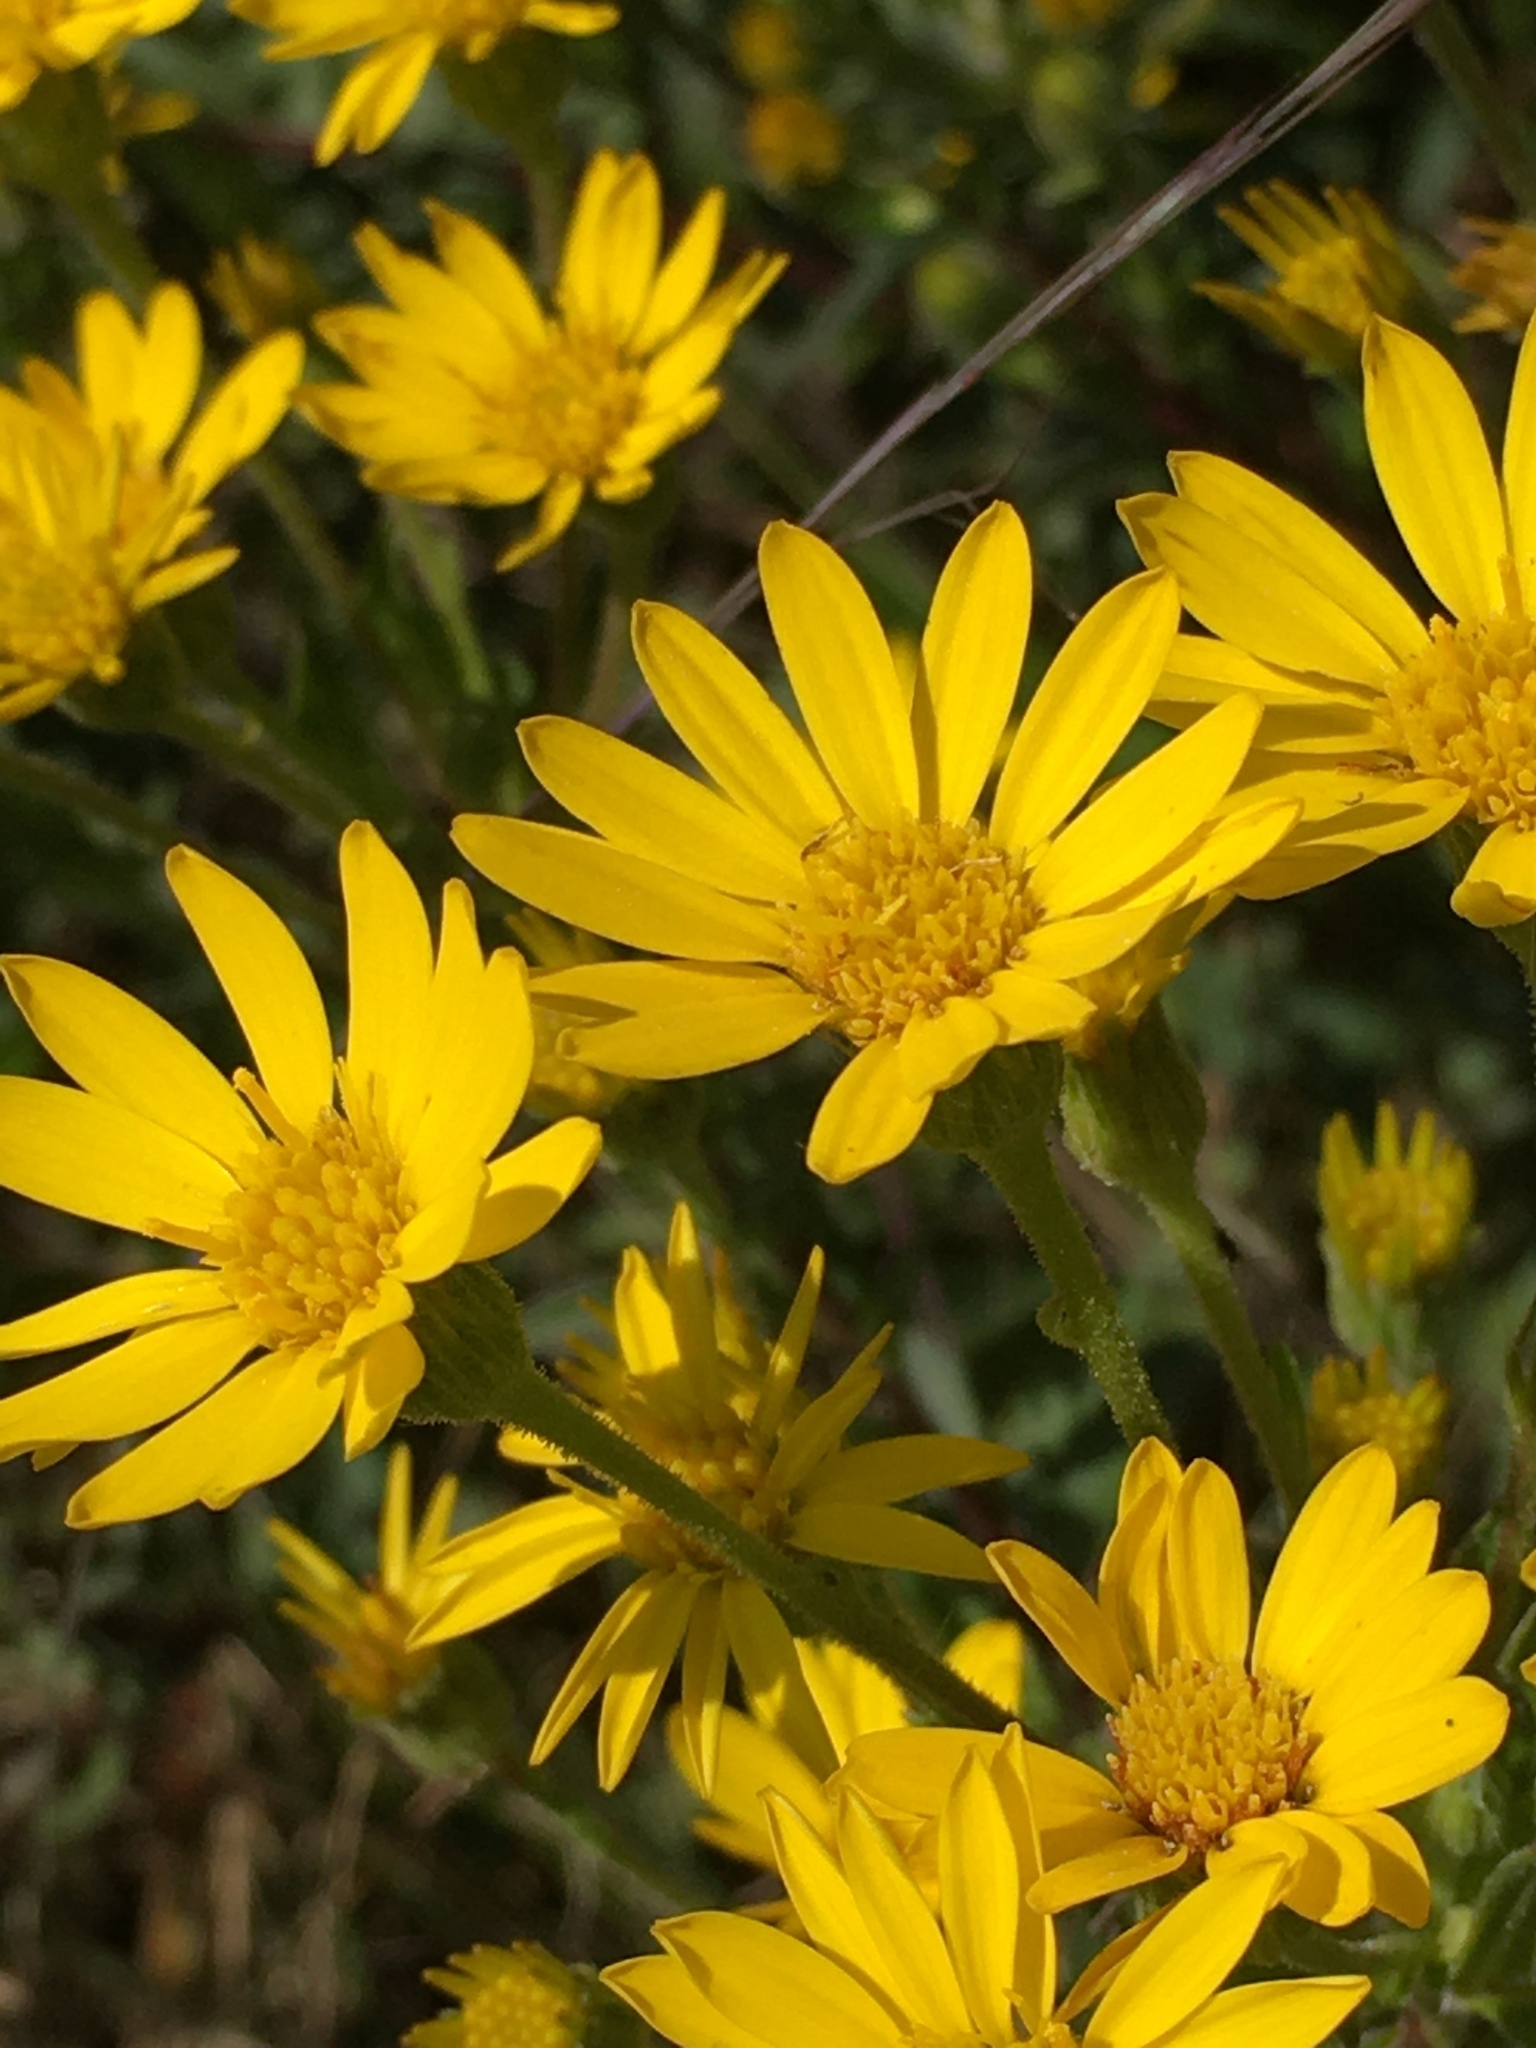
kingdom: Plantae
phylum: Tracheophyta
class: Magnoliopsida
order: Asterales
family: Asteraceae
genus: Chrysopsis
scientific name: Chrysopsis mariana
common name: Maryland golden-aster
